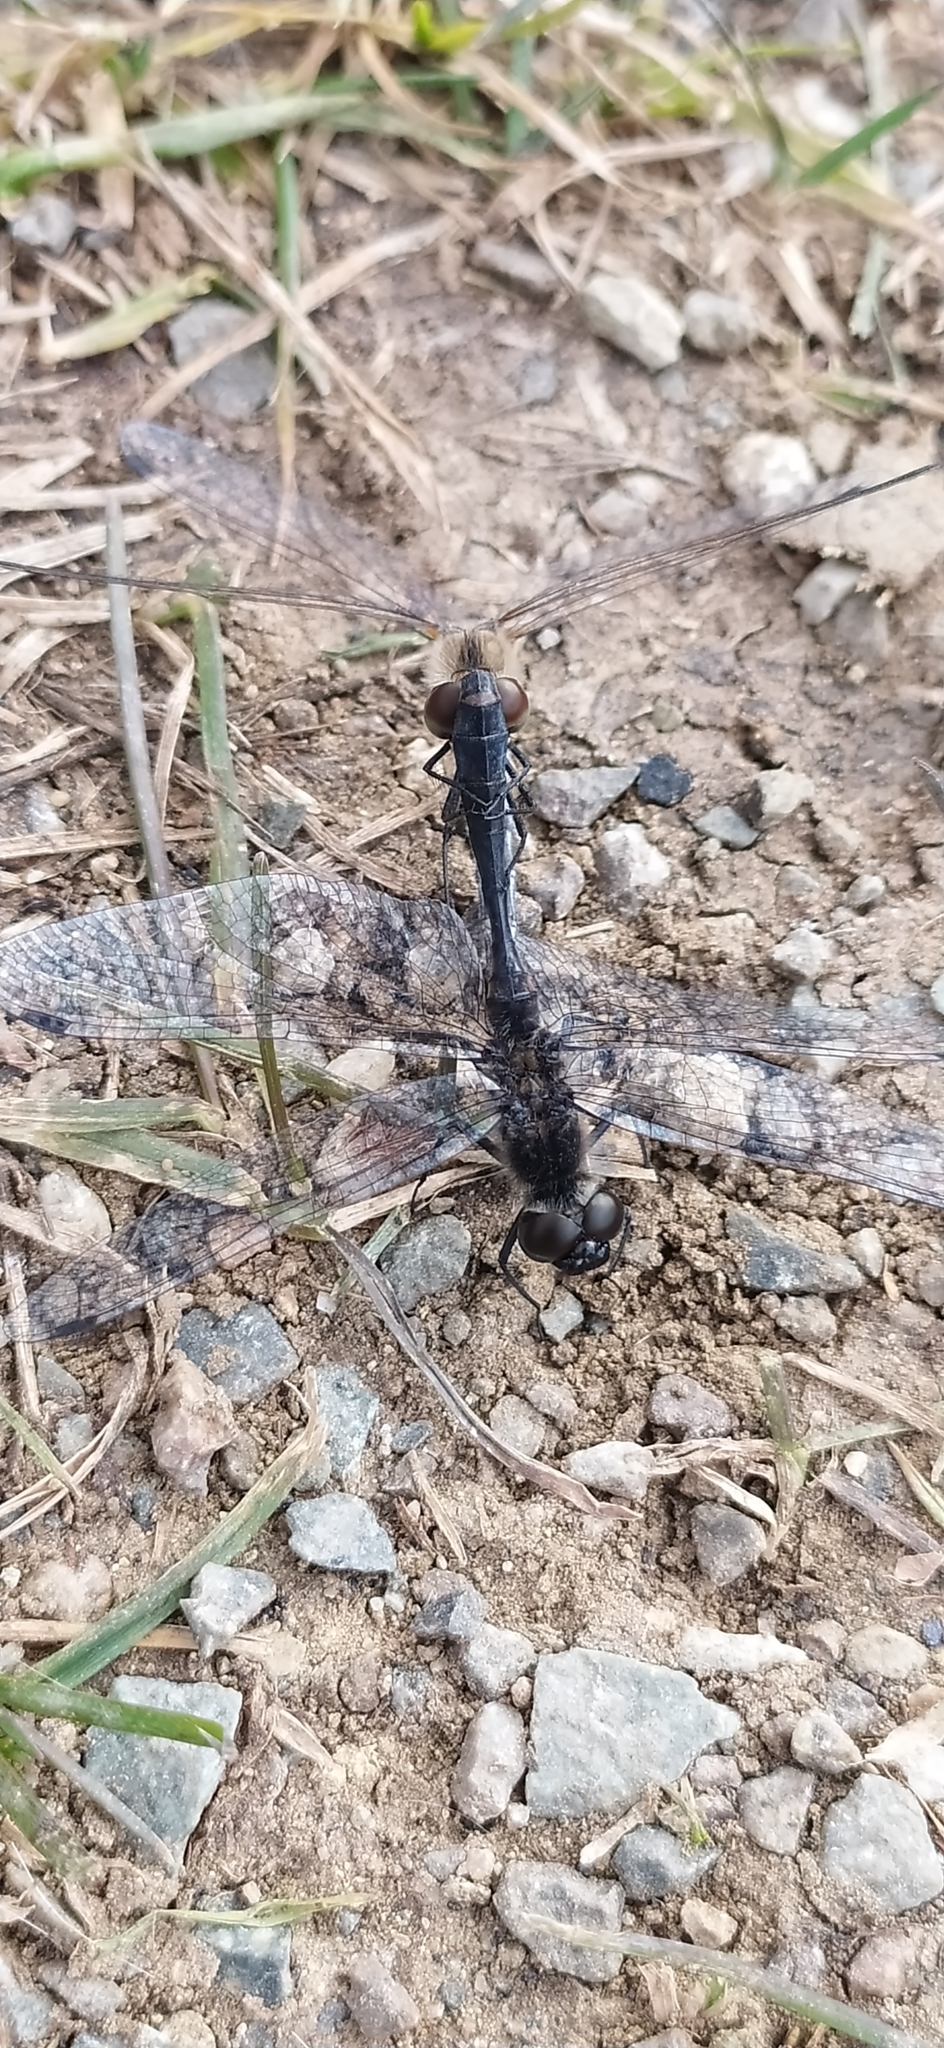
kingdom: Animalia
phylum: Arthropoda
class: Insecta
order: Odonata
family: Libellulidae
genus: Sympetrum
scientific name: Sympetrum danae
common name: Black darter
